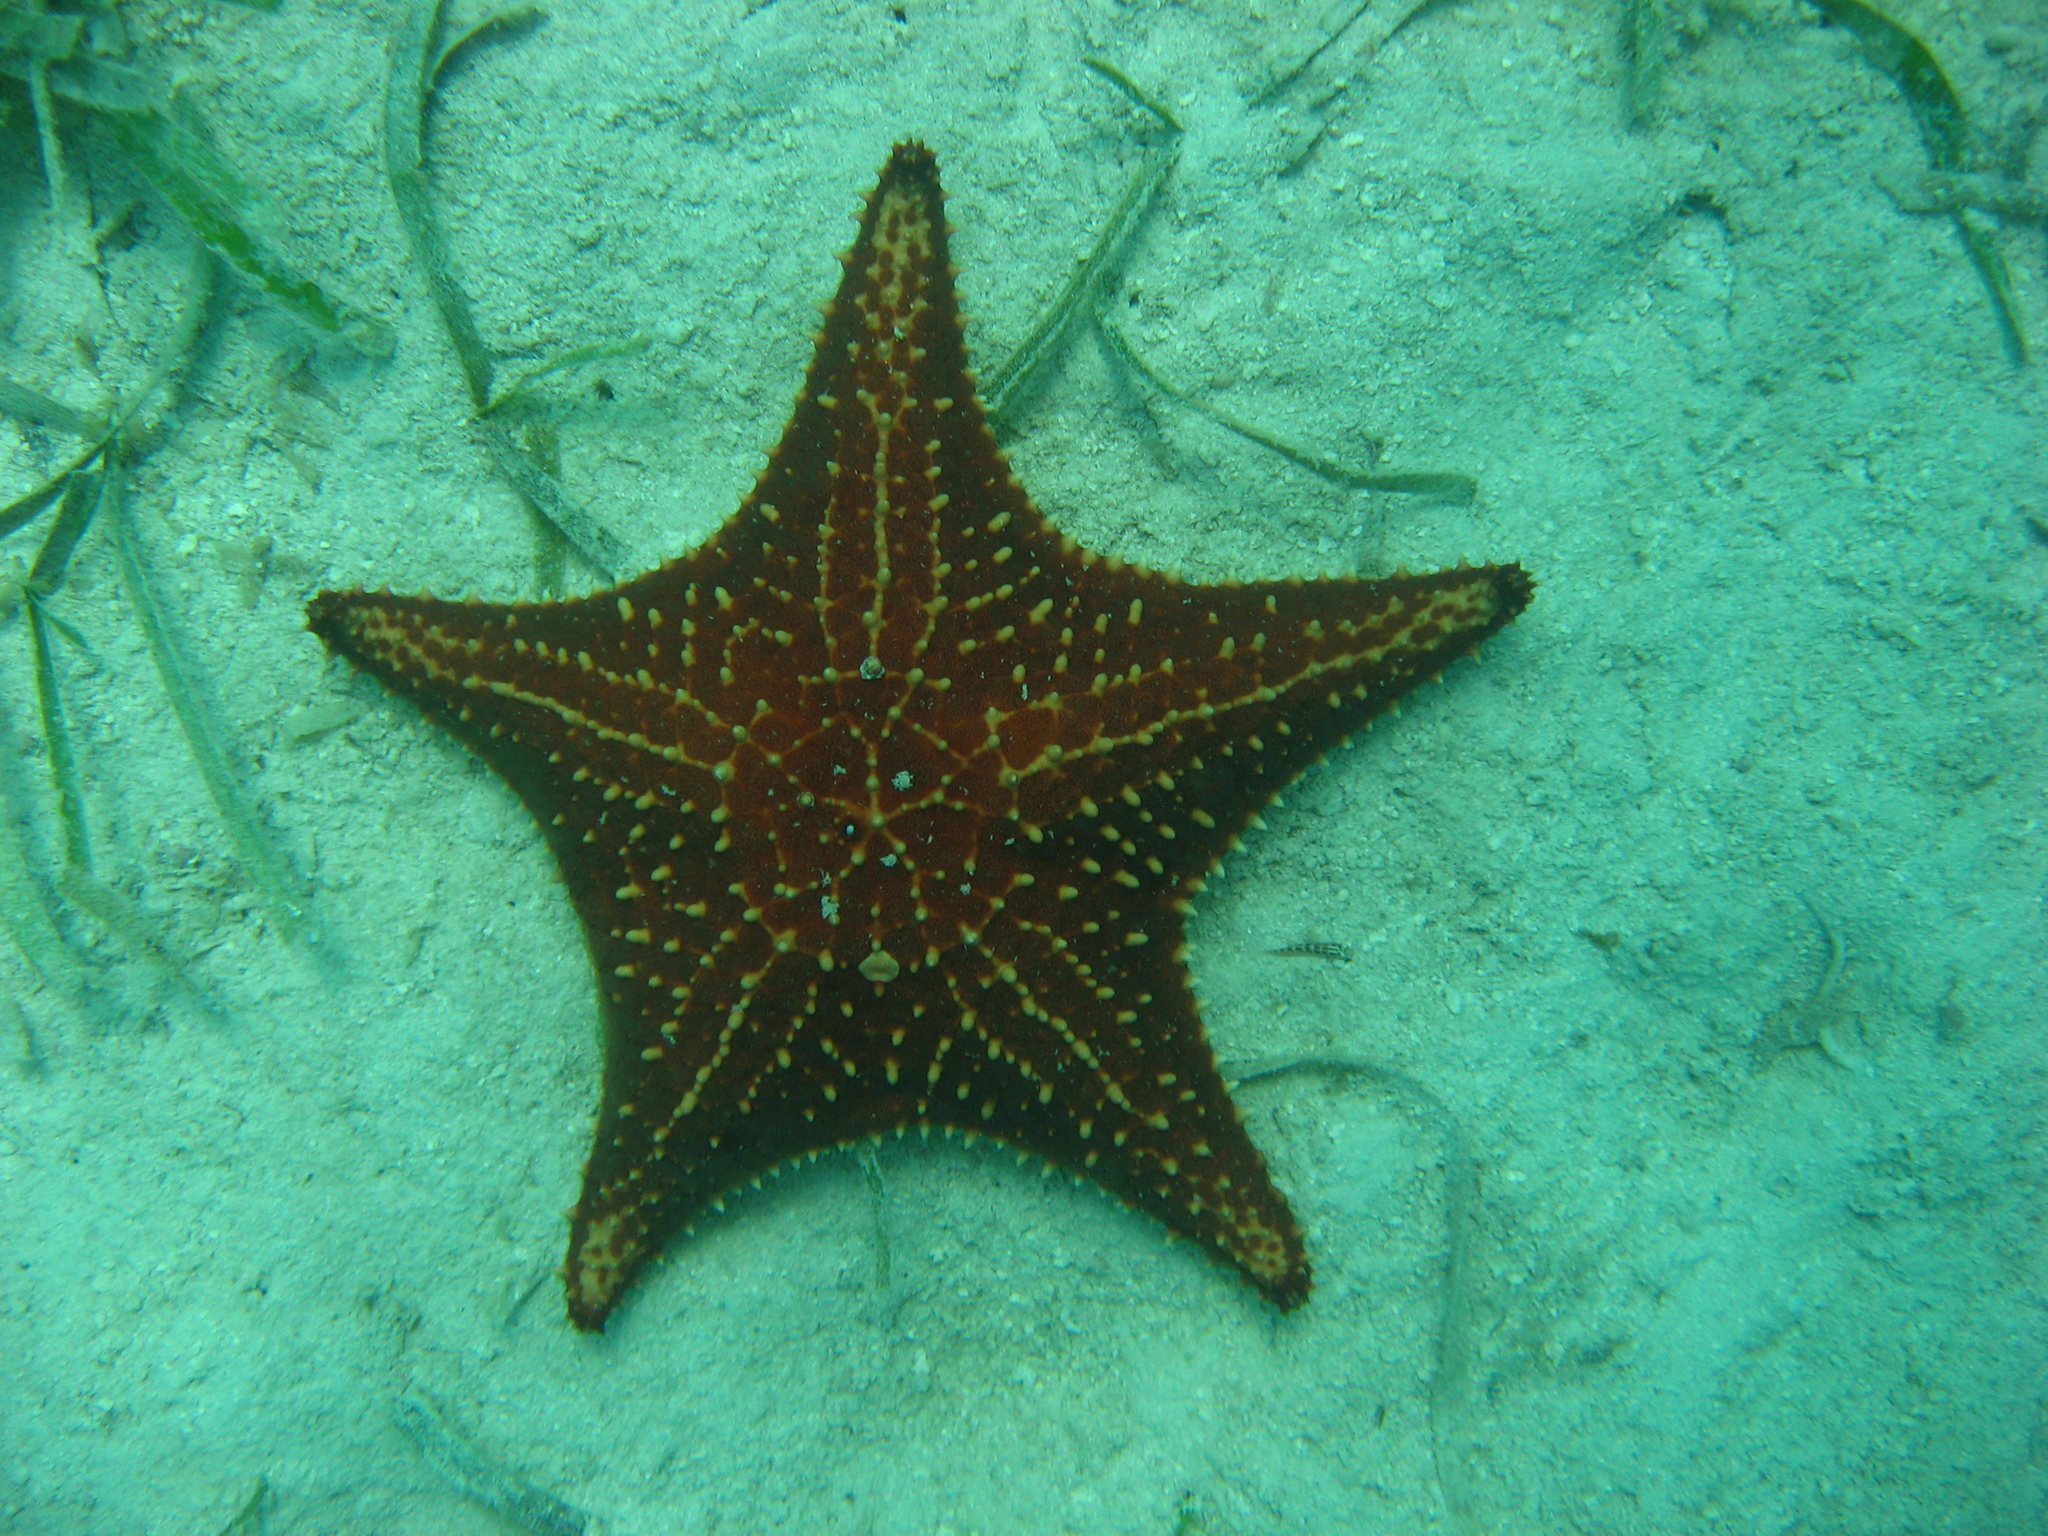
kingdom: Animalia
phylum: Echinodermata
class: Asteroidea
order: Valvatida
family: Oreasteridae
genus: Oreaster
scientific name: Oreaster reticulatus
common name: Cushion sea star
